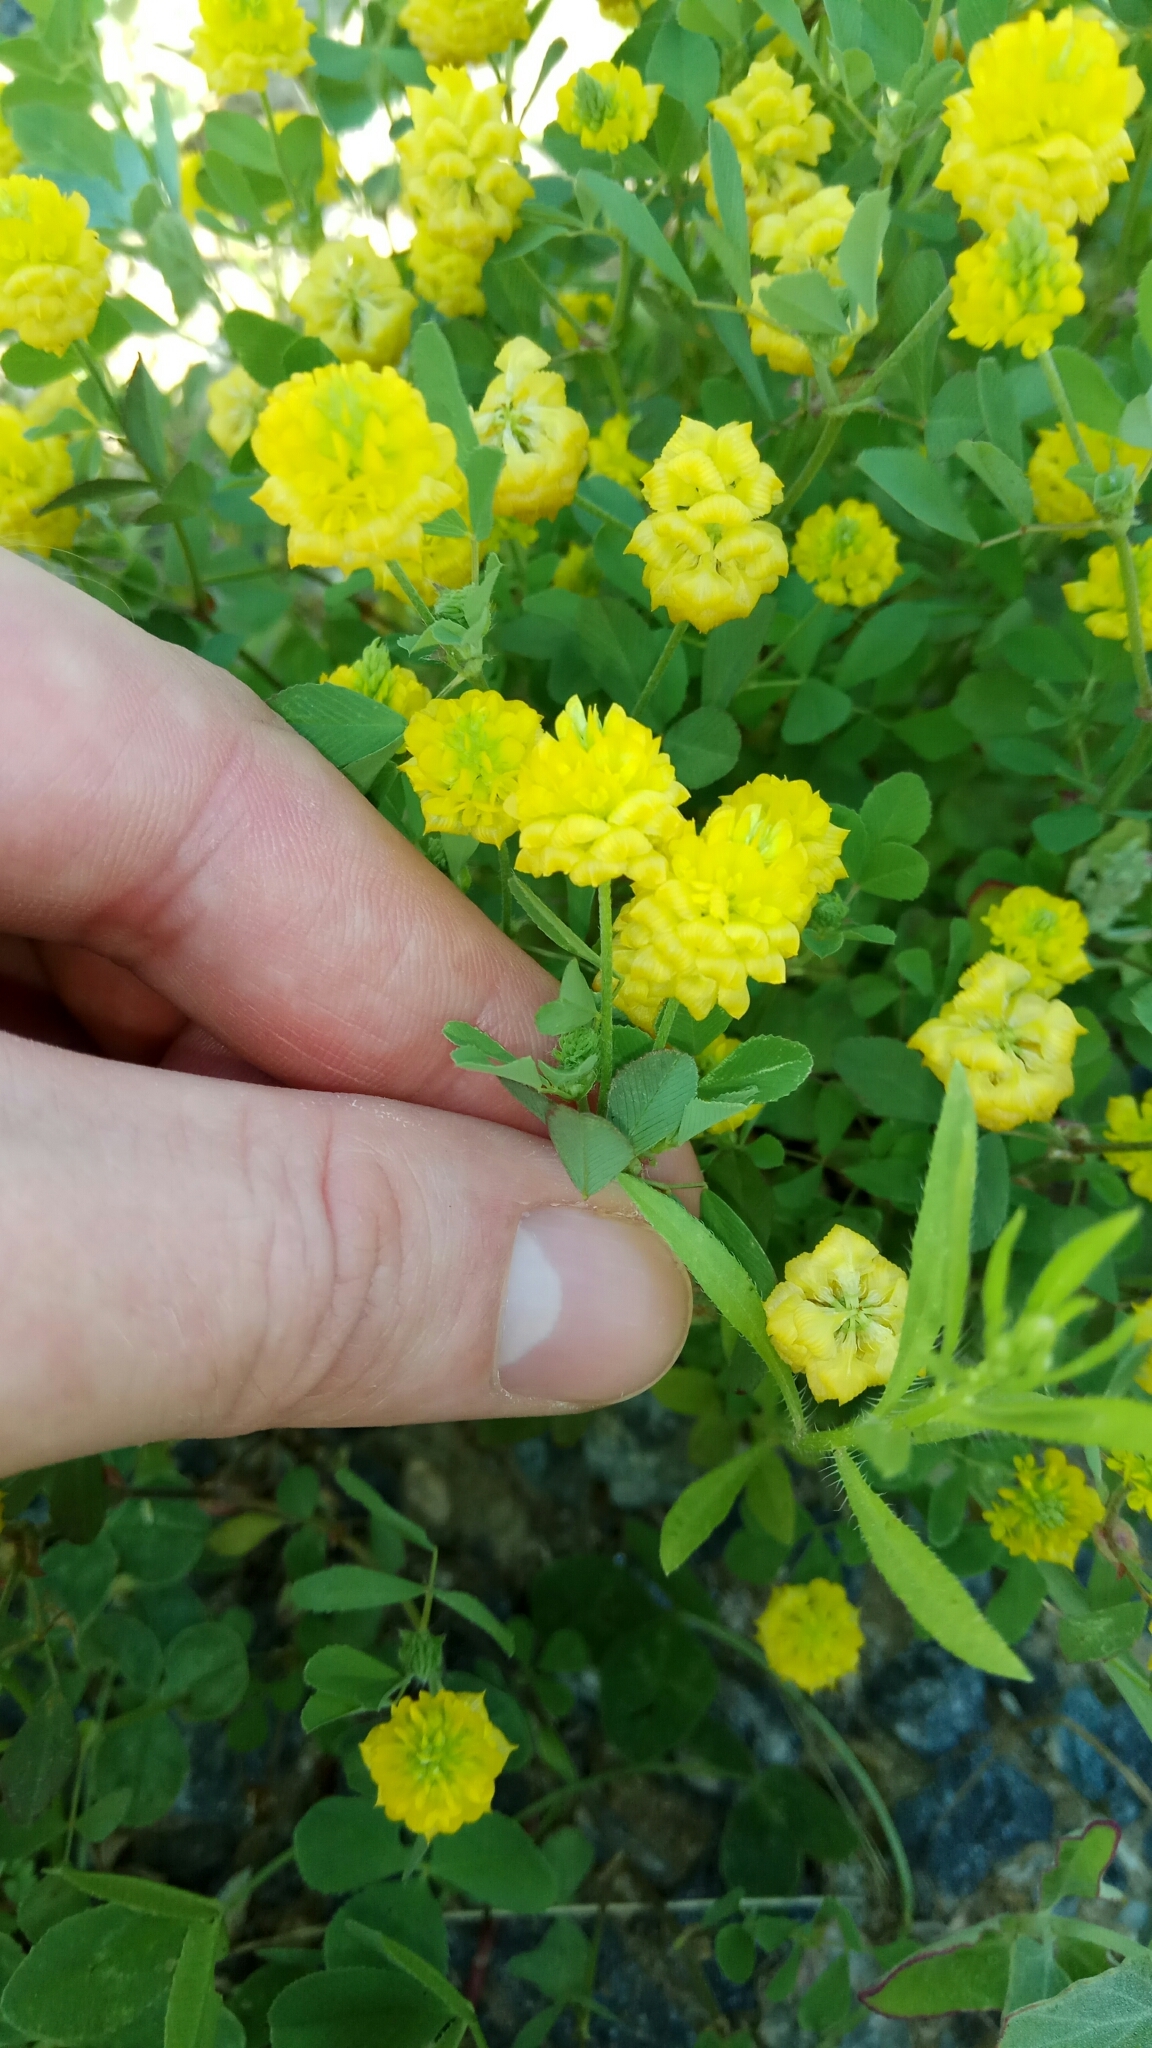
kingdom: Plantae
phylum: Tracheophyta
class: Magnoliopsida
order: Fabales
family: Fabaceae
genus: Trifolium
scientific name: Trifolium campestre
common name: Field clover
